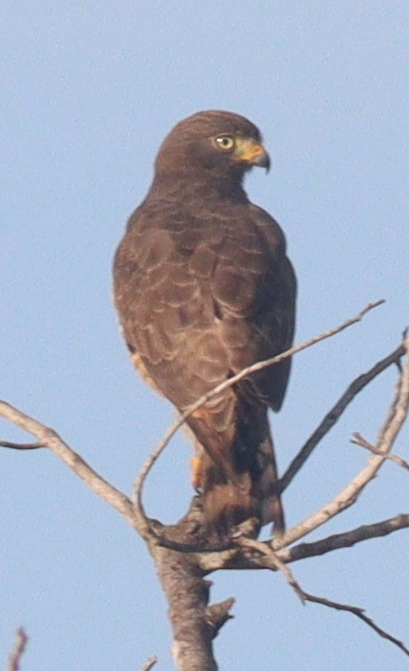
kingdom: Animalia
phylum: Chordata
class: Aves
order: Accipitriformes
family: Accipitridae
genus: Rupornis
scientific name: Rupornis magnirostris
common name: Roadside hawk
